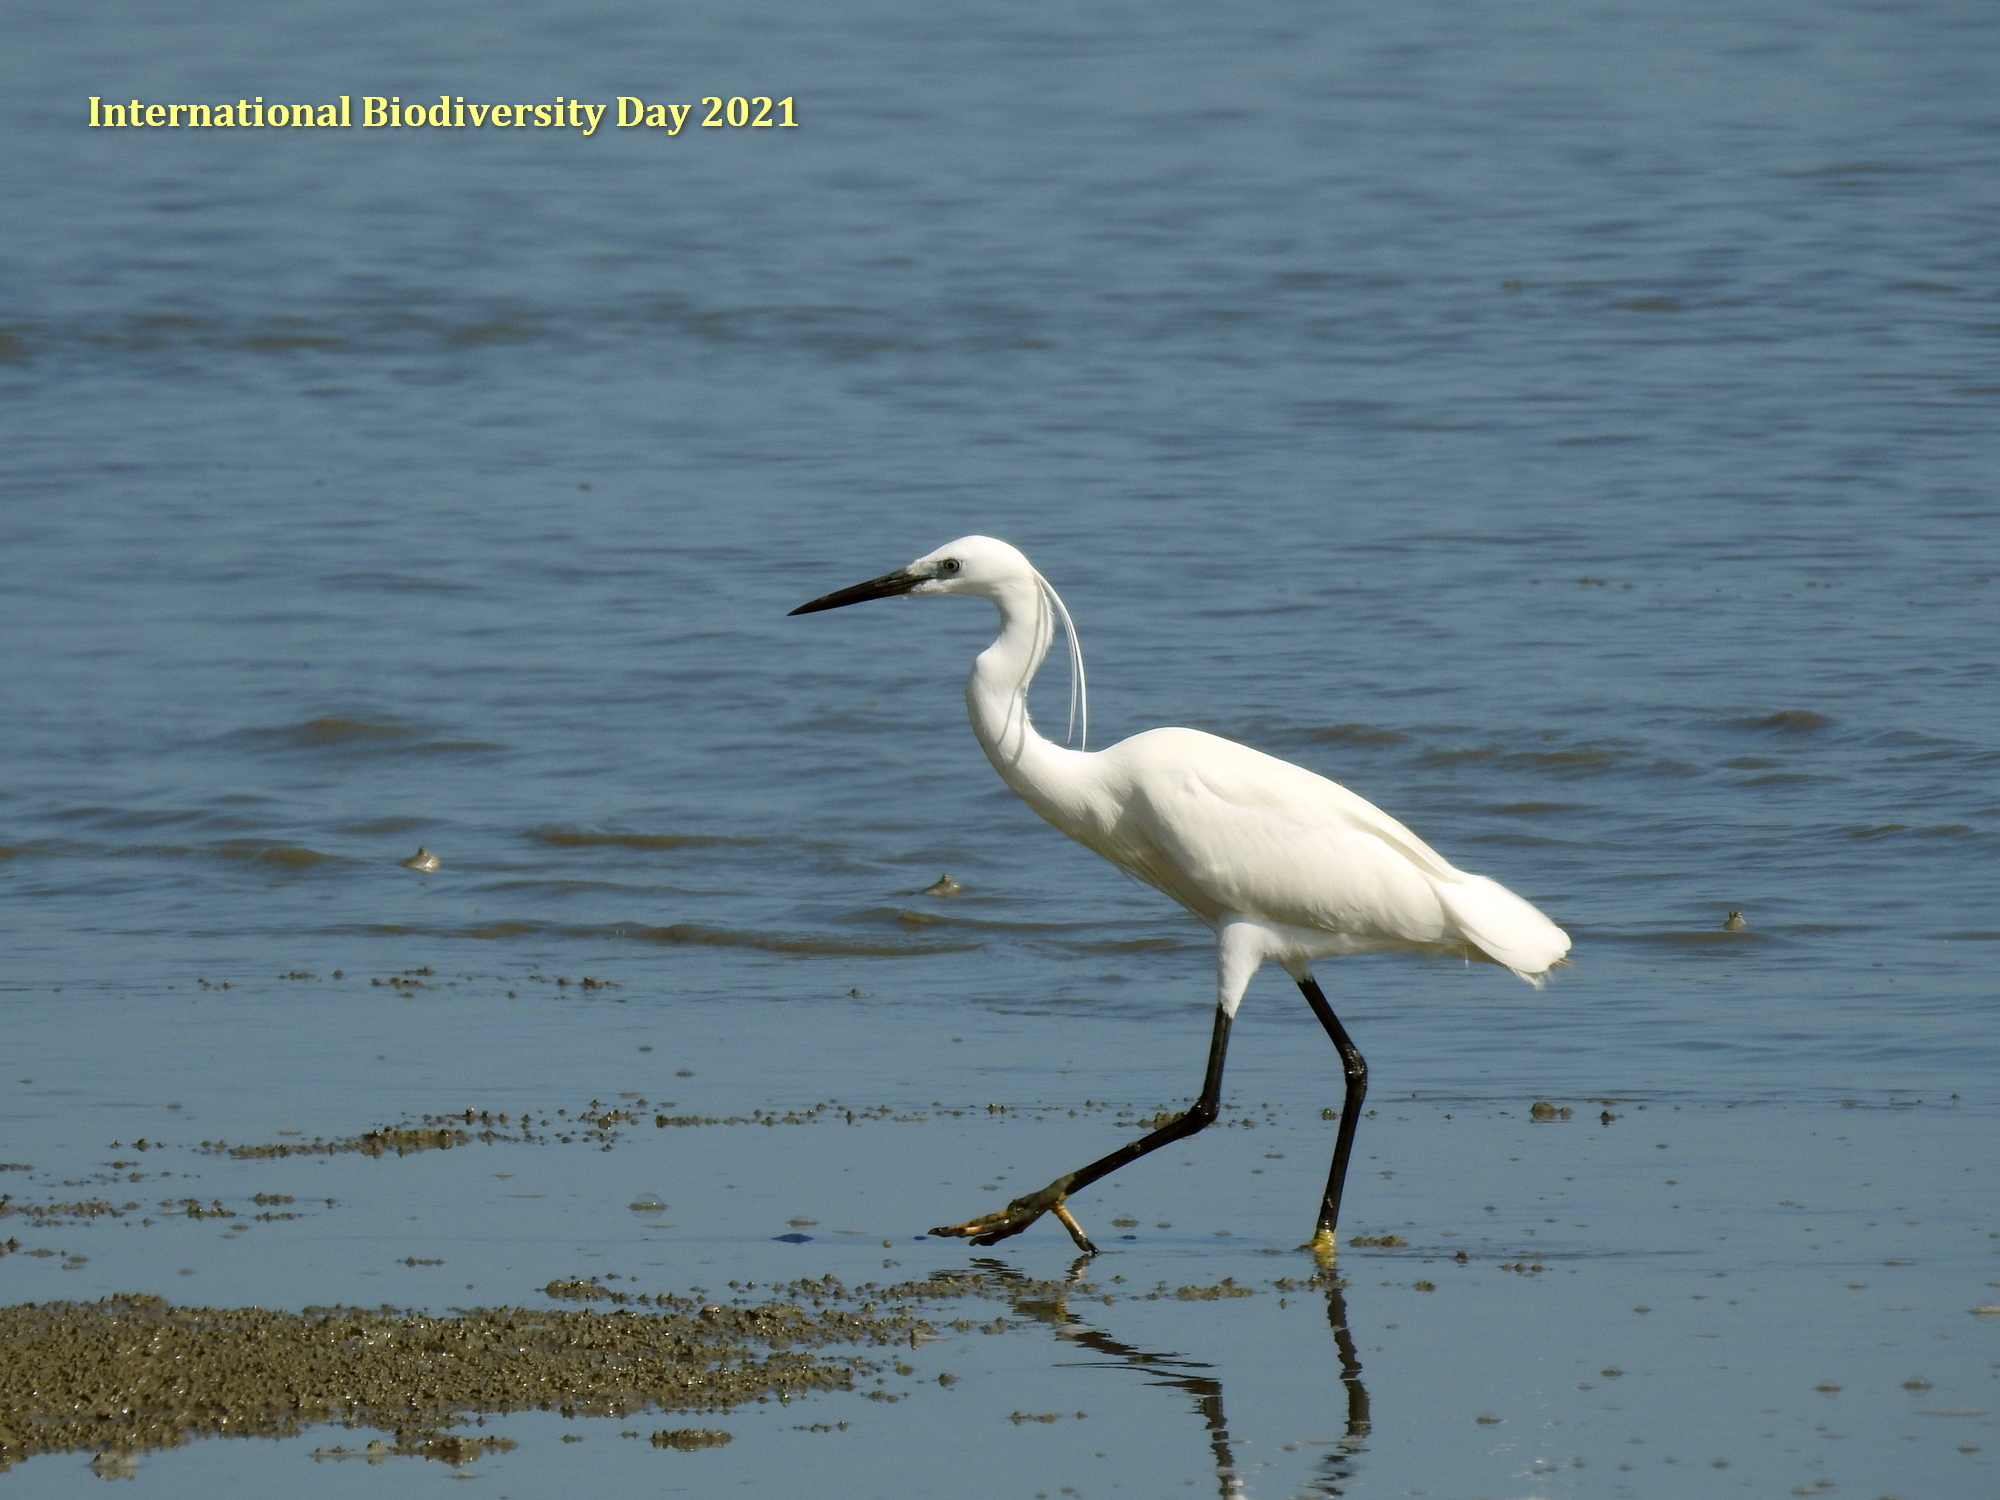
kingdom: Animalia
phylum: Chordata
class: Aves
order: Pelecaniformes
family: Ardeidae
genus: Egretta
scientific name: Egretta garzetta
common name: Little egret
